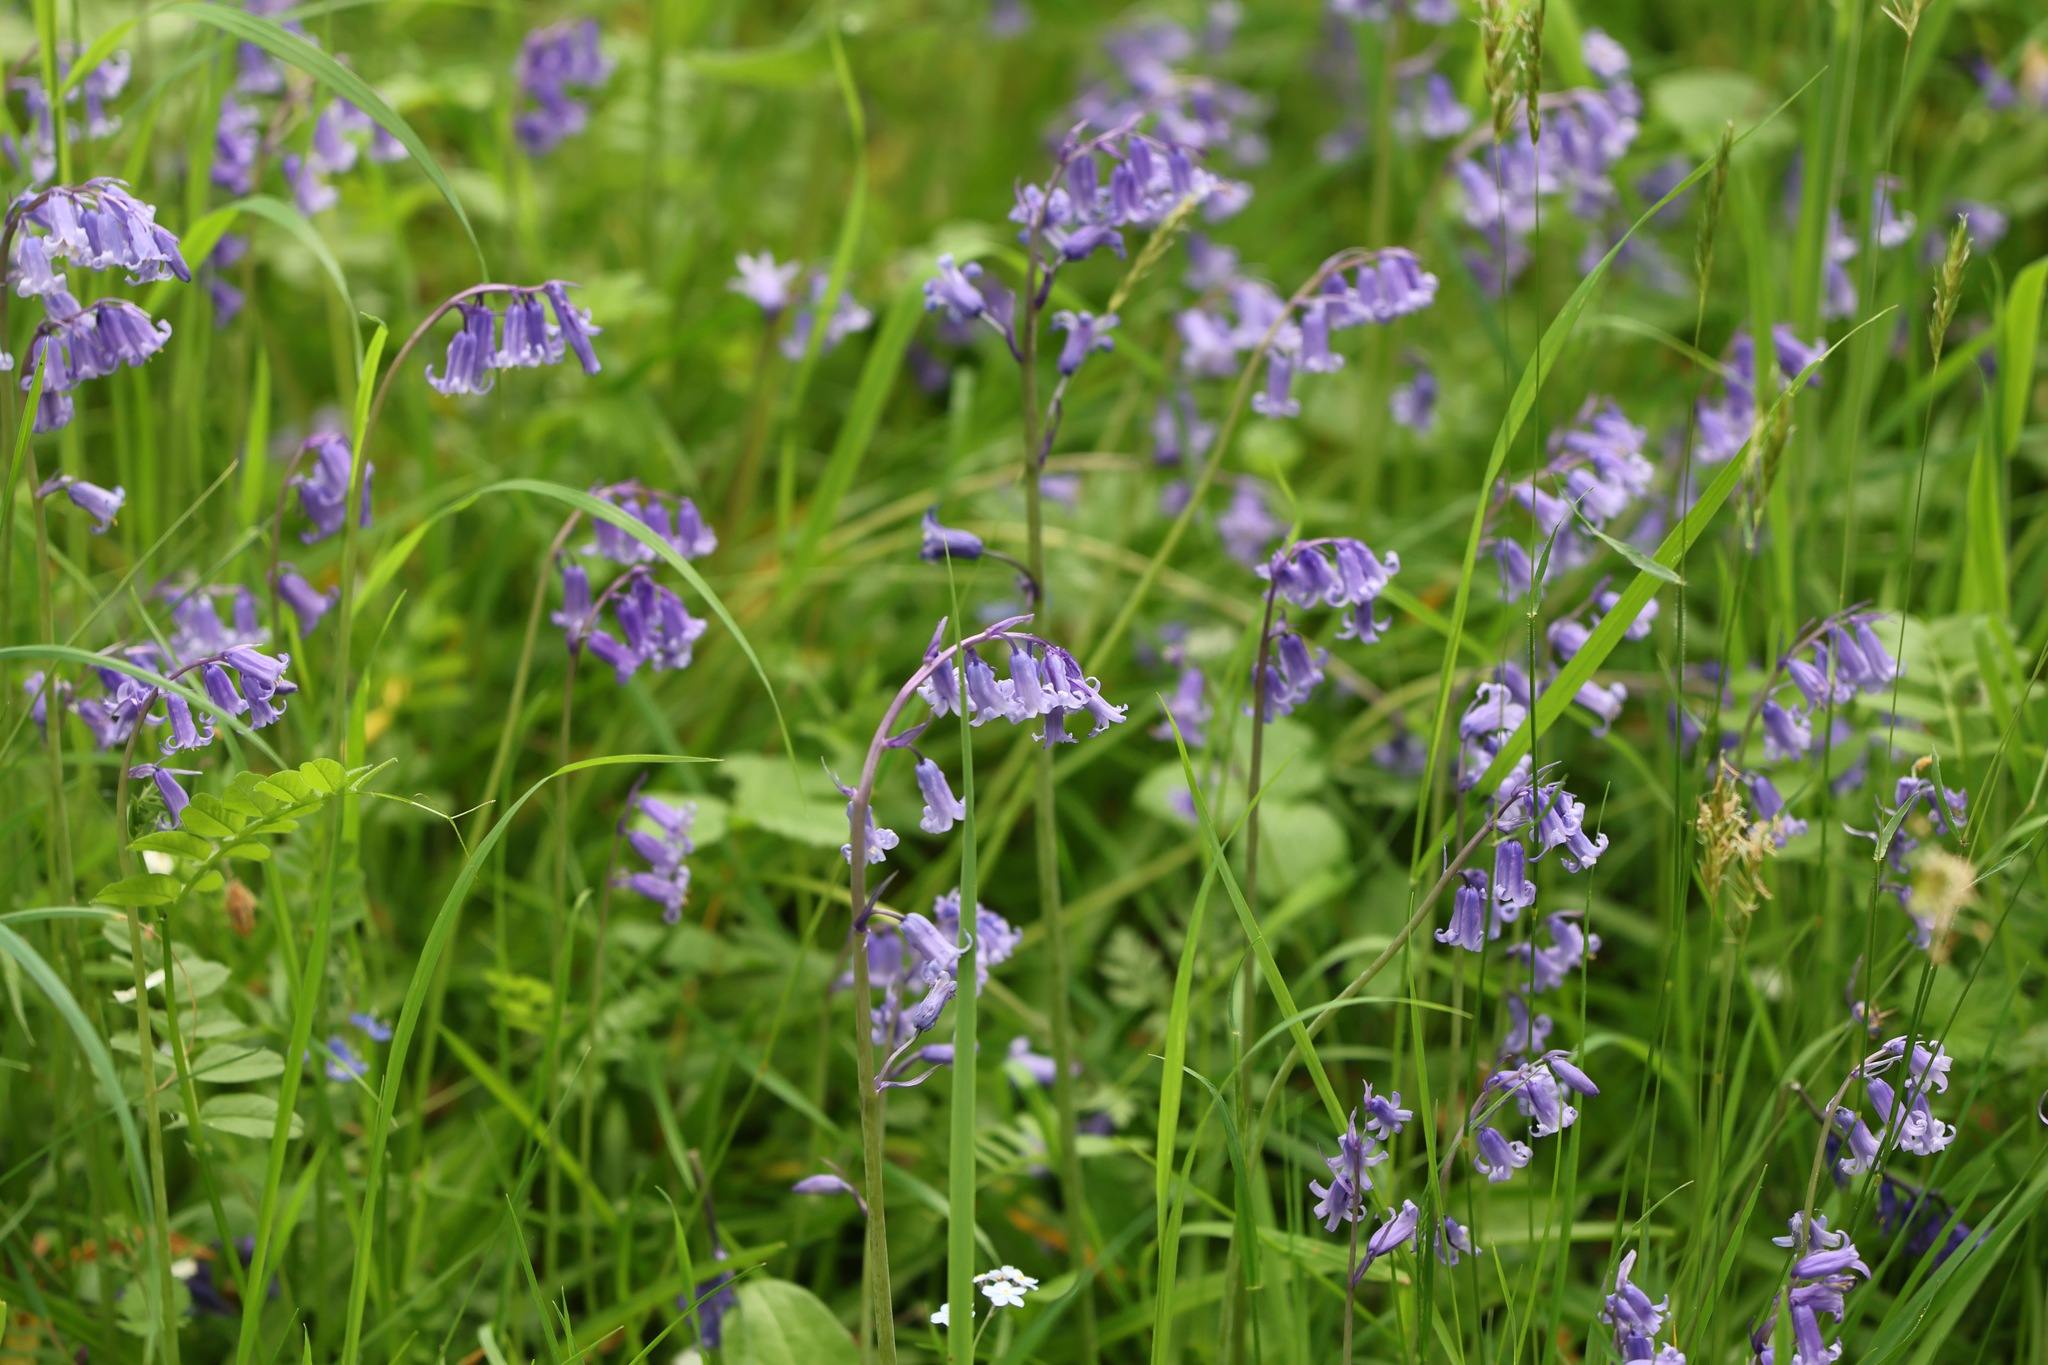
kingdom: Plantae
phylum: Tracheophyta
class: Liliopsida
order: Asparagales
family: Asparagaceae
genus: Hyacinthoides
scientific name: Hyacinthoides non-scripta
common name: Bluebell
